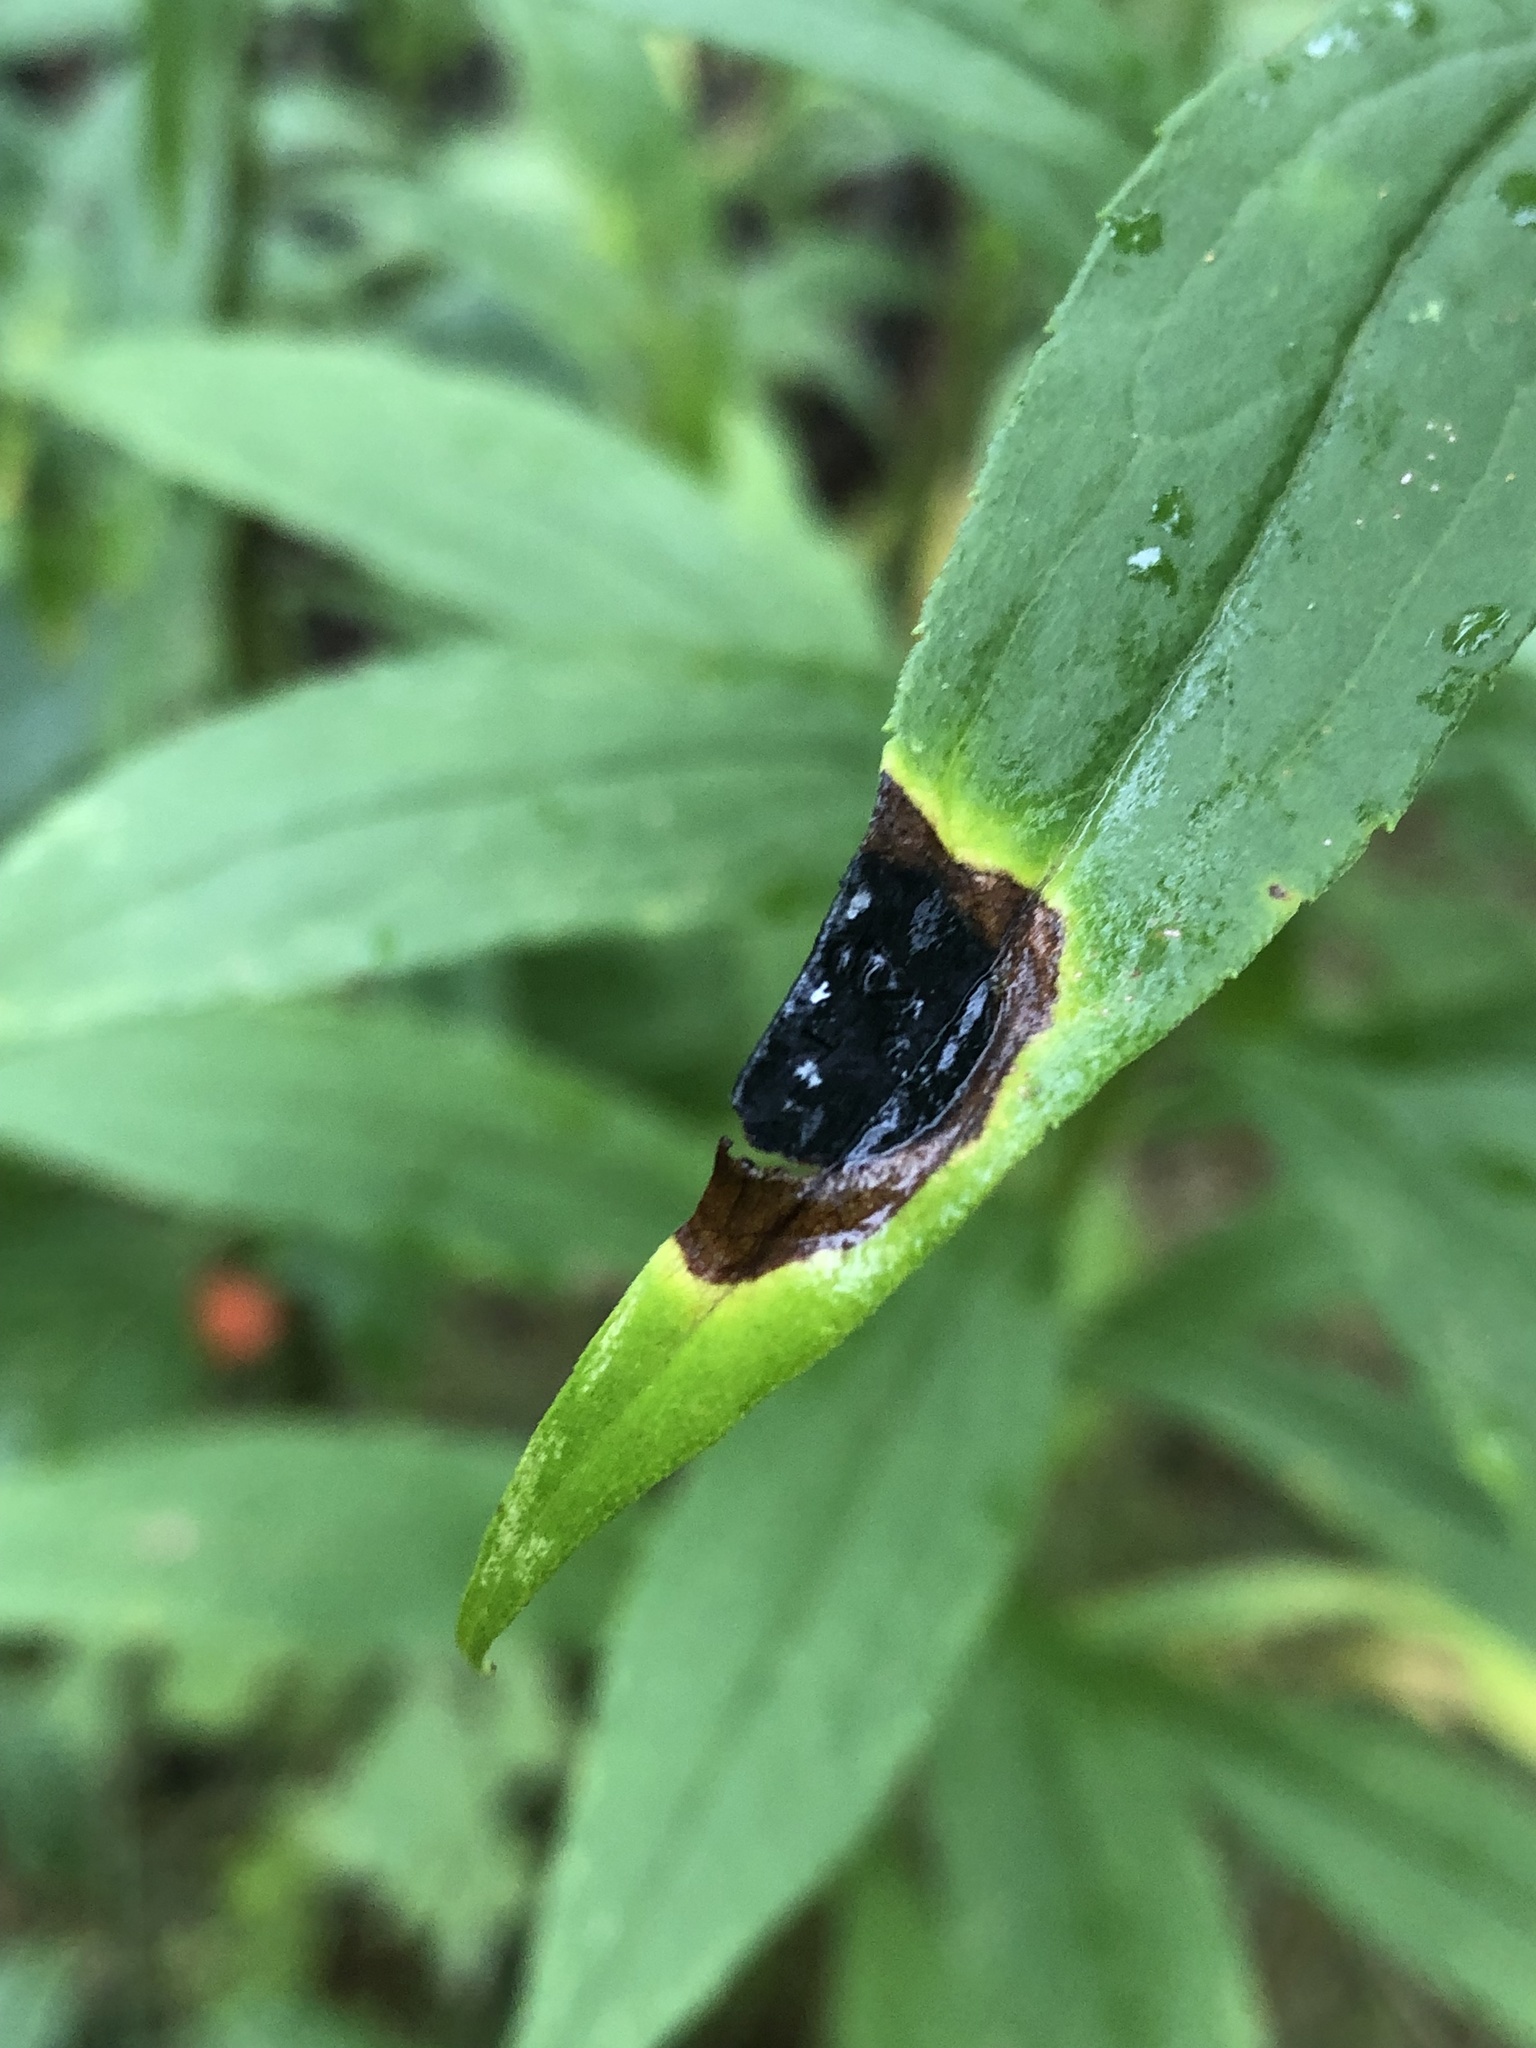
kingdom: Animalia
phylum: Arthropoda
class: Insecta
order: Diptera
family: Cecidomyiidae
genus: Asteromyia
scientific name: Asteromyia carbonifera
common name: Carbonifera goldenrod gall midge
